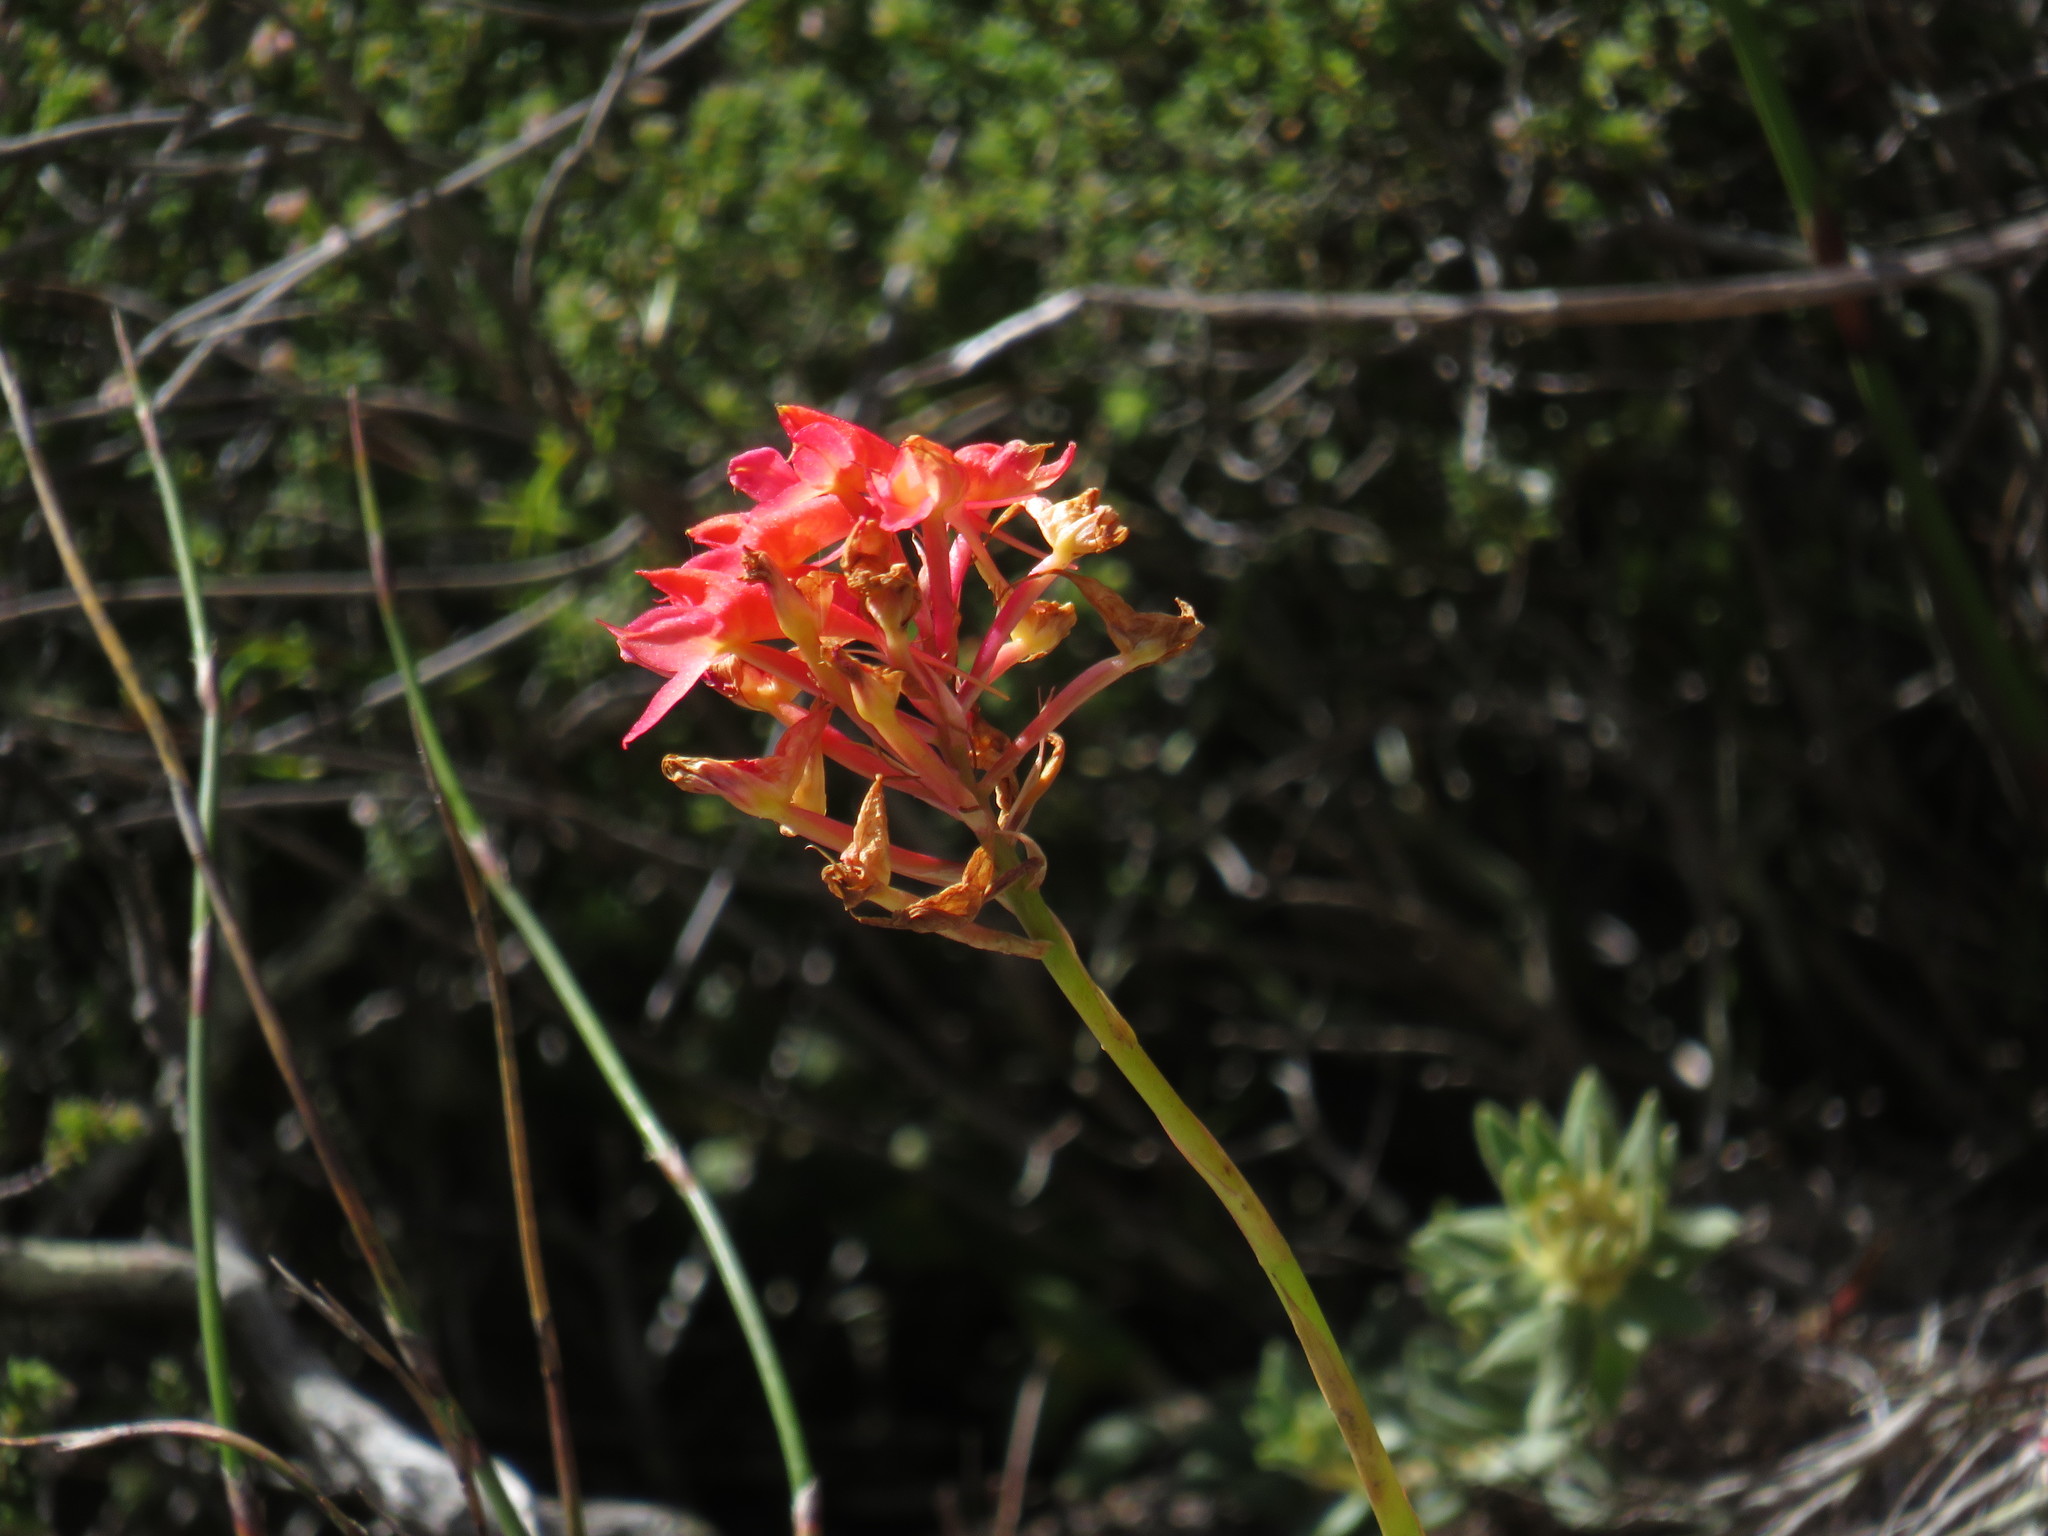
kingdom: Plantae
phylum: Tracheophyta
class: Liliopsida
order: Asparagales
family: Orchidaceae
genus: Disa
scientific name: Disa ferruginea
